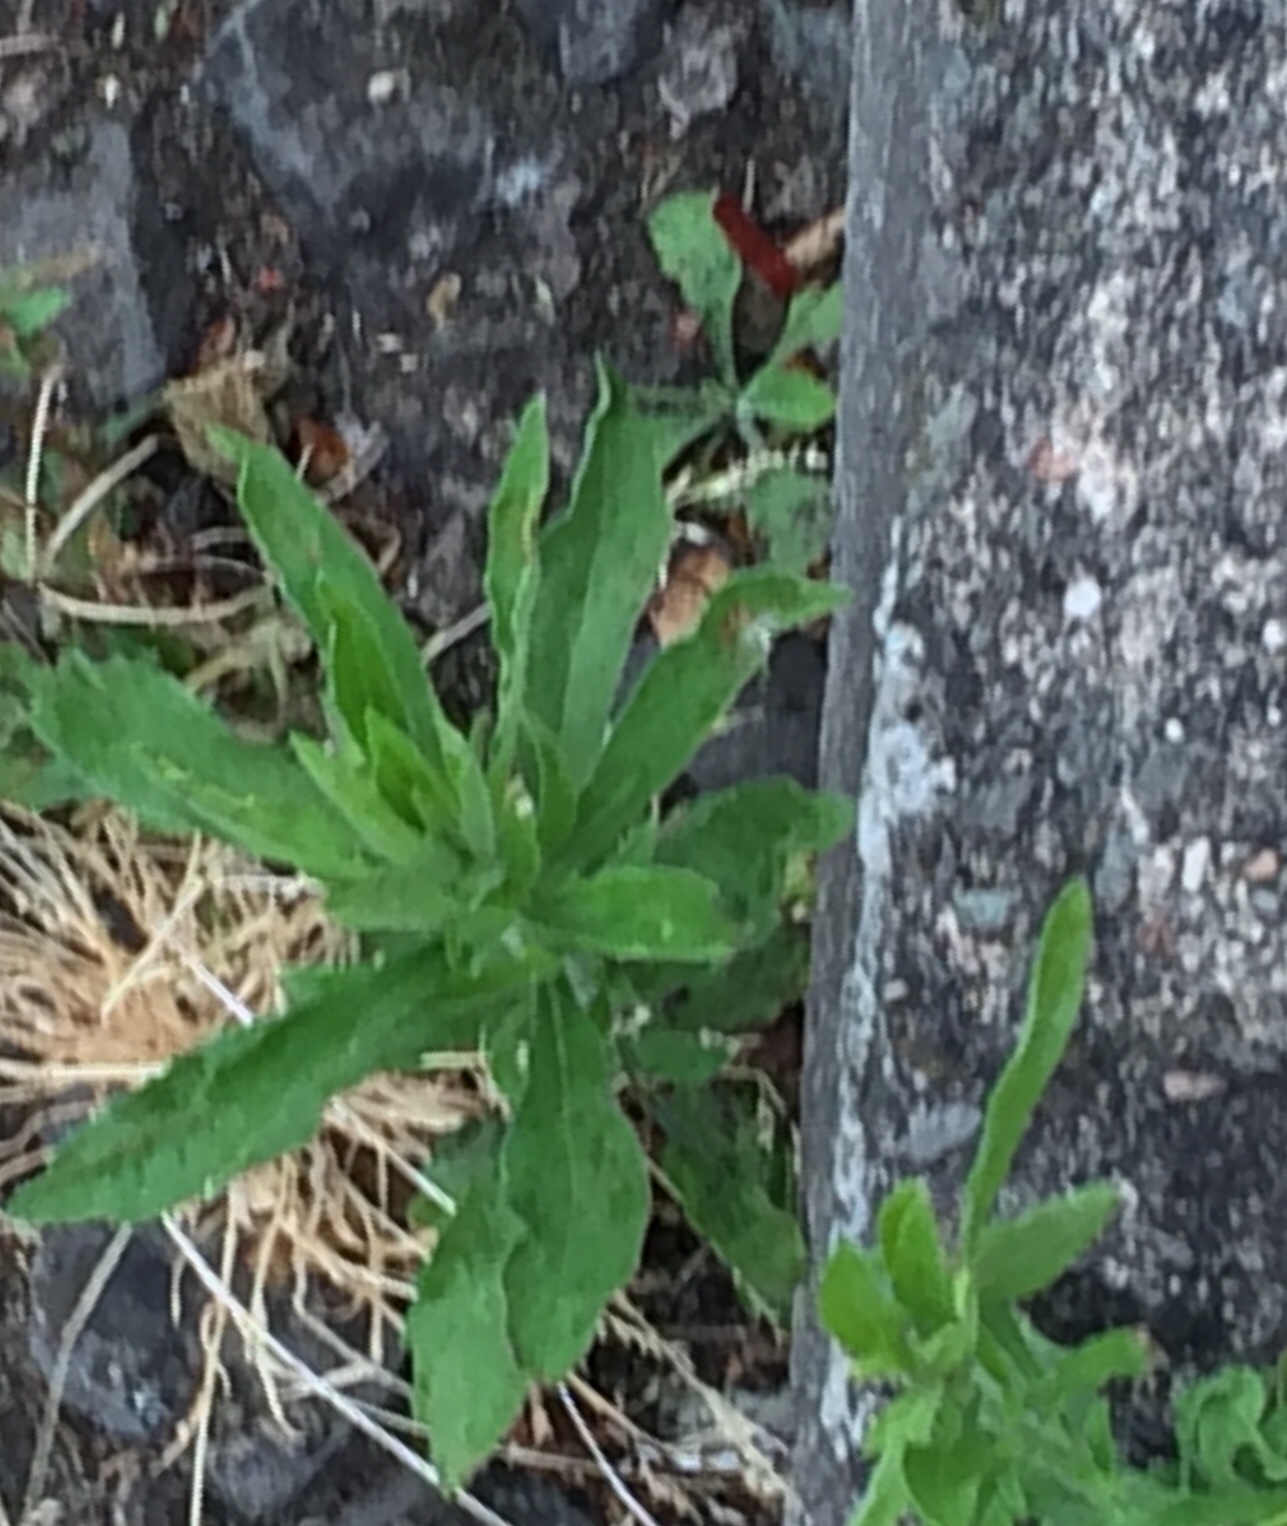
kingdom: Plantae
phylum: Tracheophyta
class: Magnoliopsida
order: Asterales
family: Asteraceae
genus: Erigeron
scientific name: Erigeron sumatrensis
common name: Daisy
